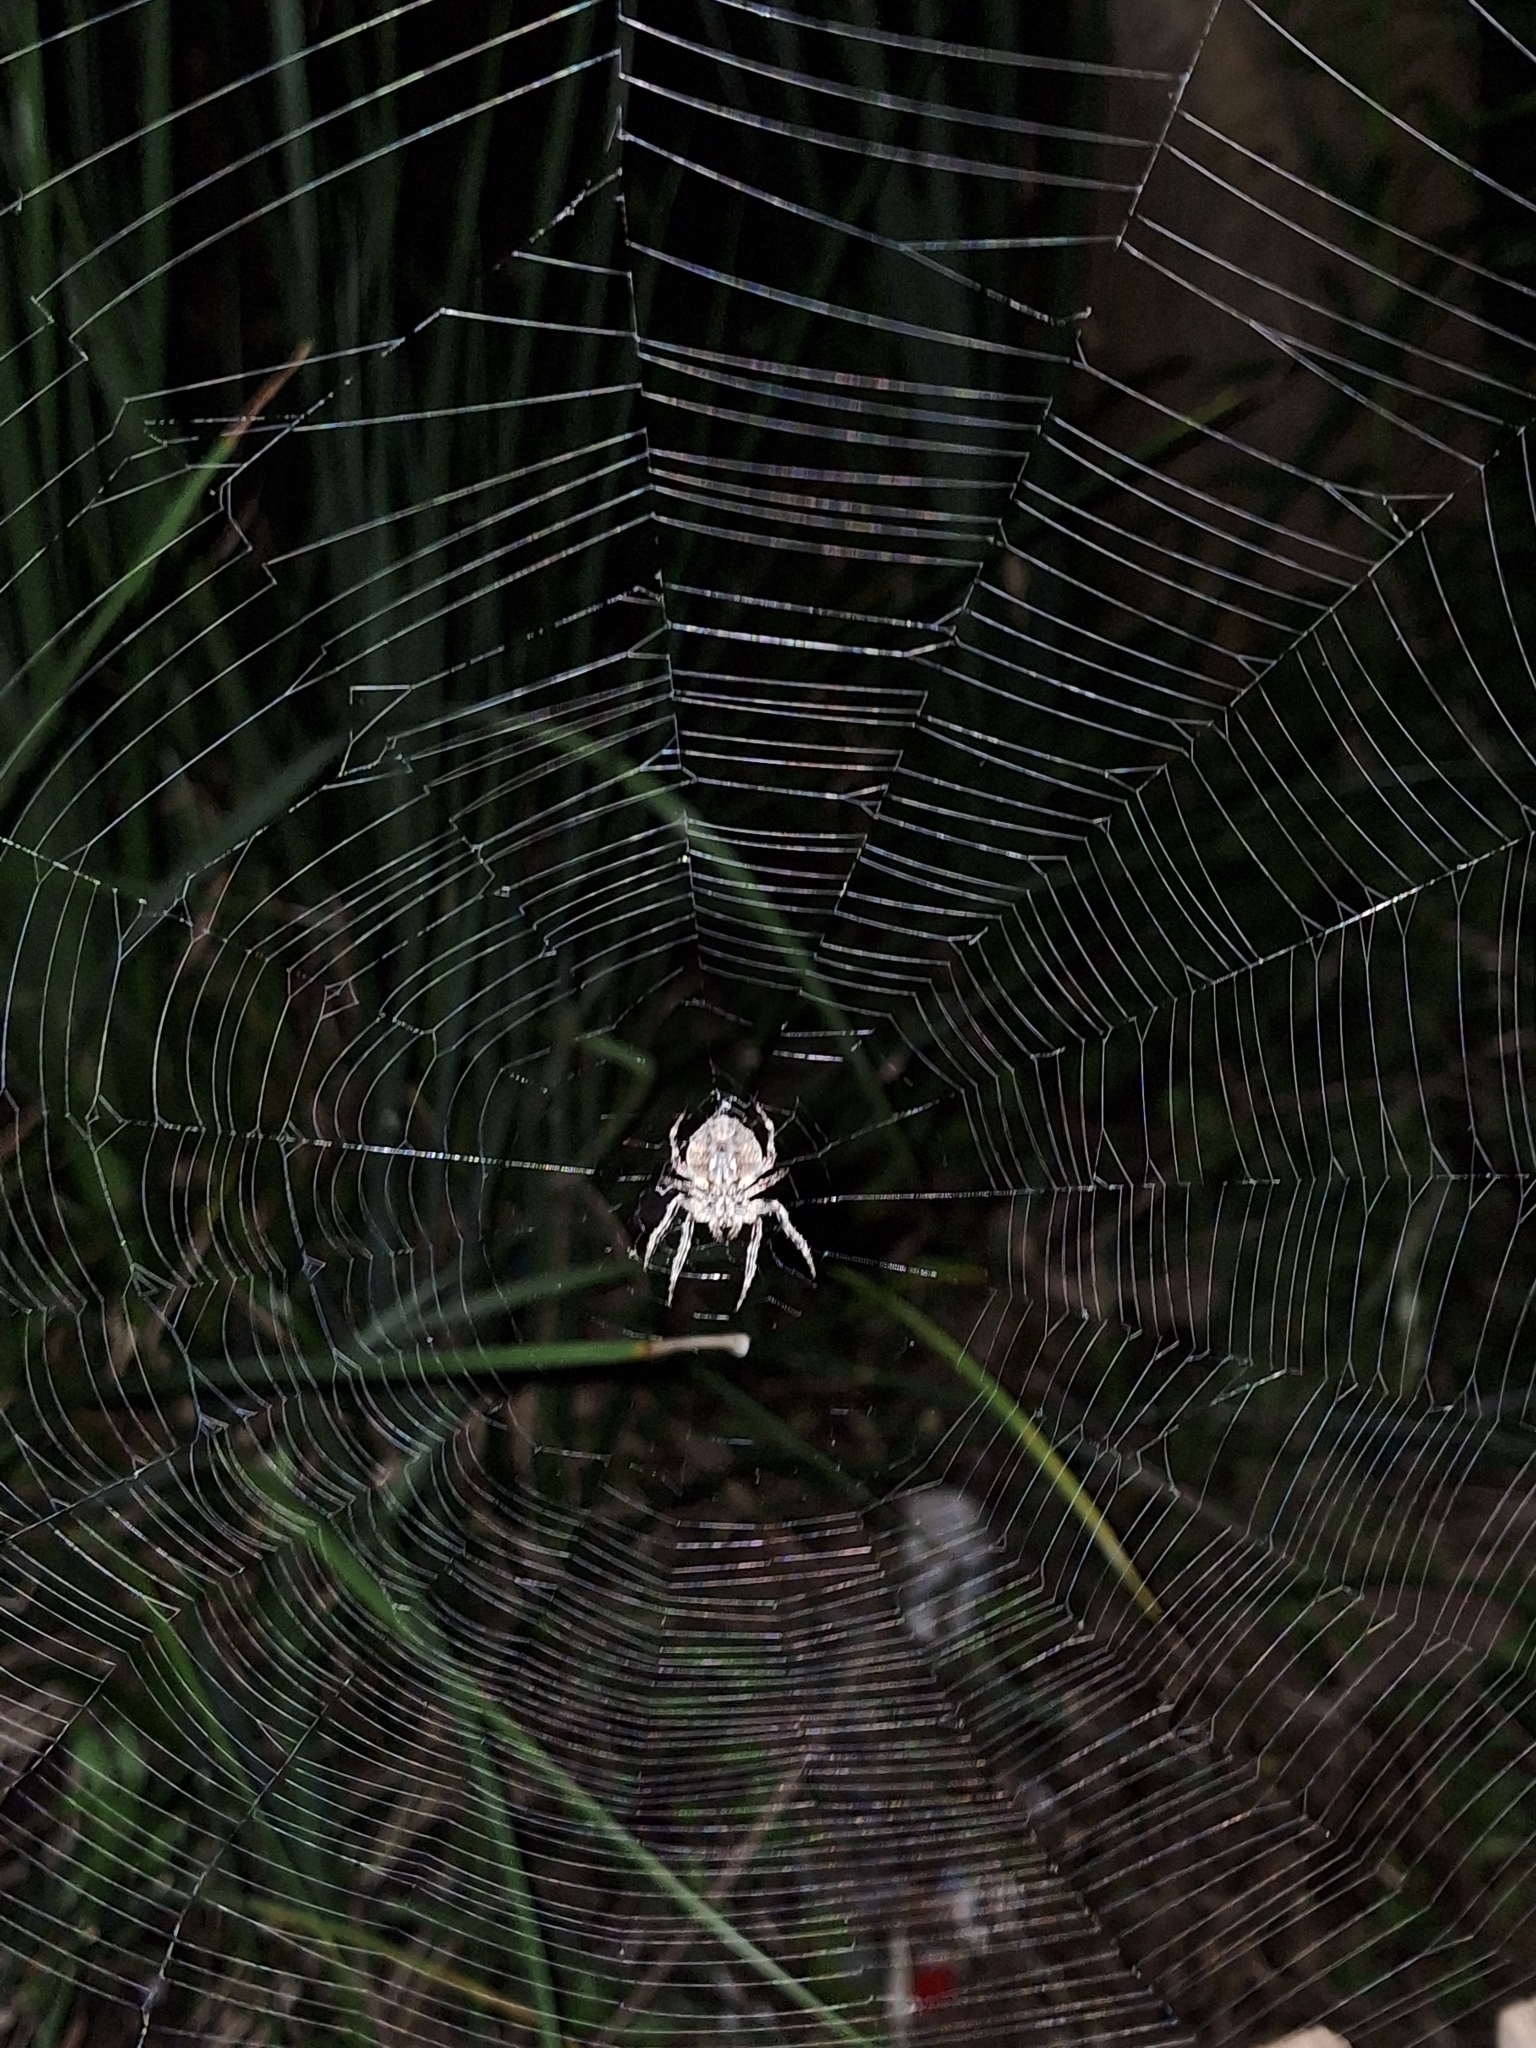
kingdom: Animalia
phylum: Arthropoda
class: Arachnida
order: Araneae
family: Araneidae
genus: Parawixia
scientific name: Parawixia audax
